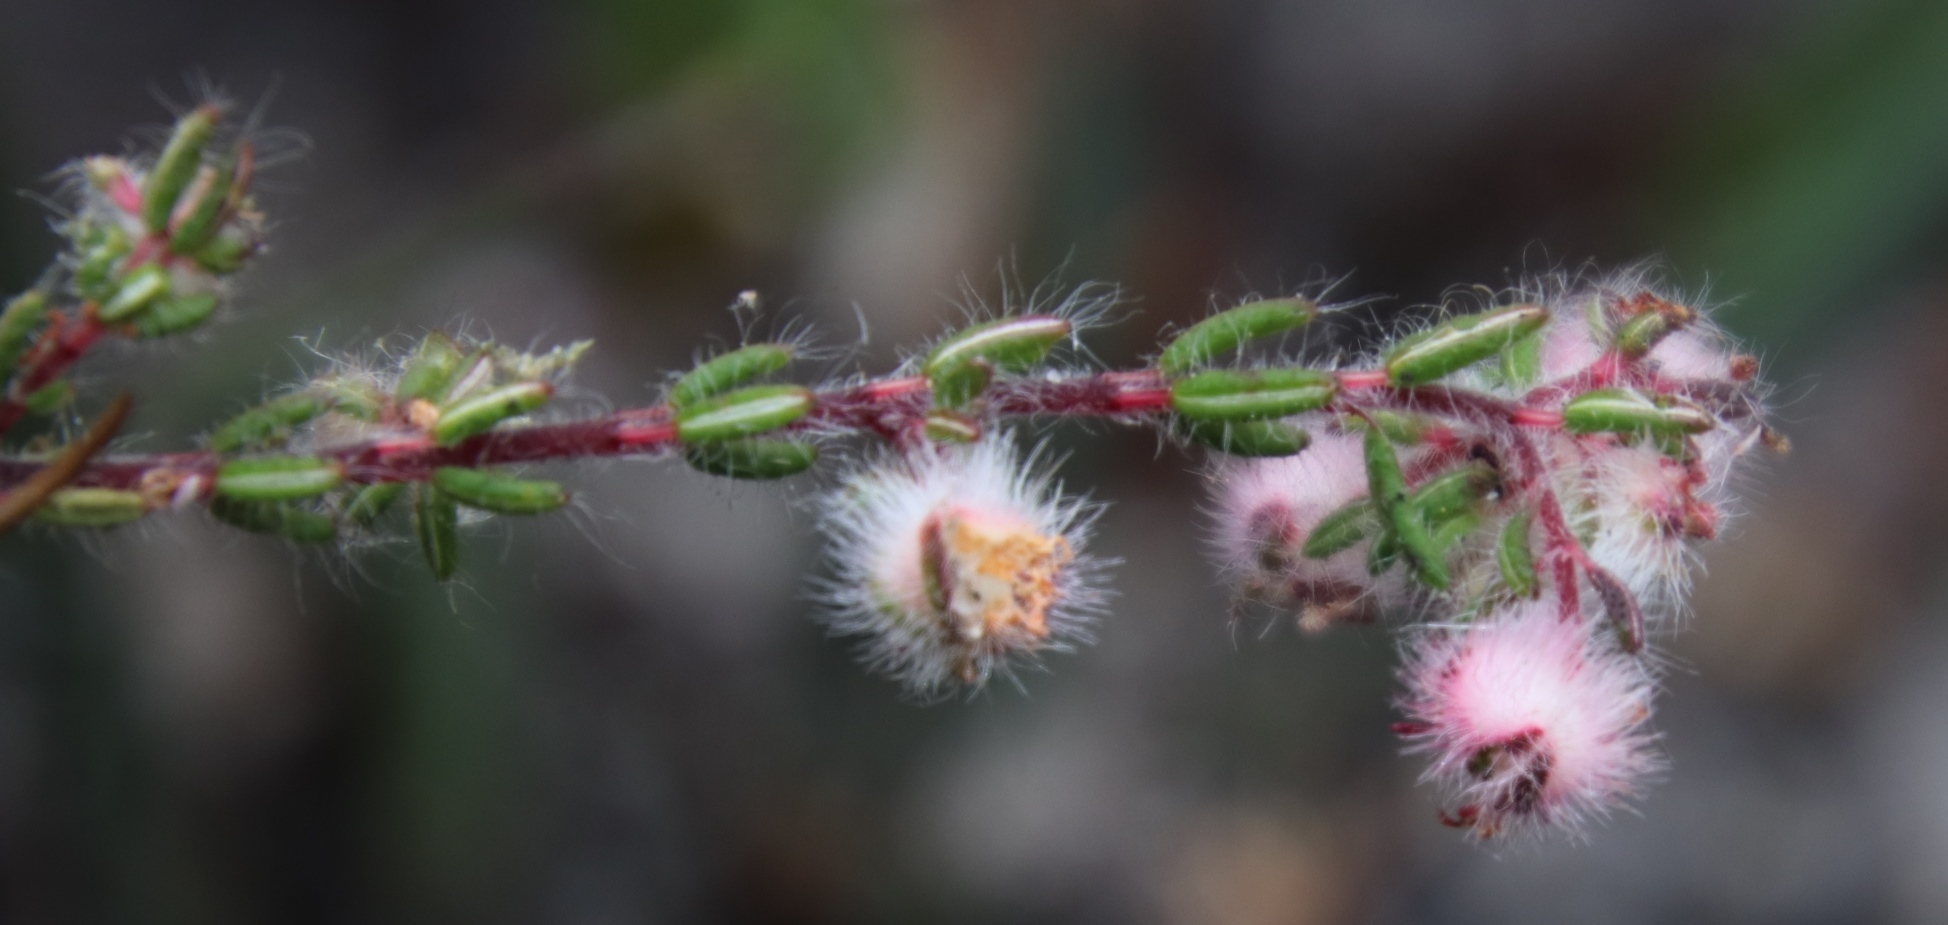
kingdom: Plantae
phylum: Tracheophyta
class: Magnoliopsida
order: Ericales
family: Ericaceae
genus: Erica
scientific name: Erica bruniades
